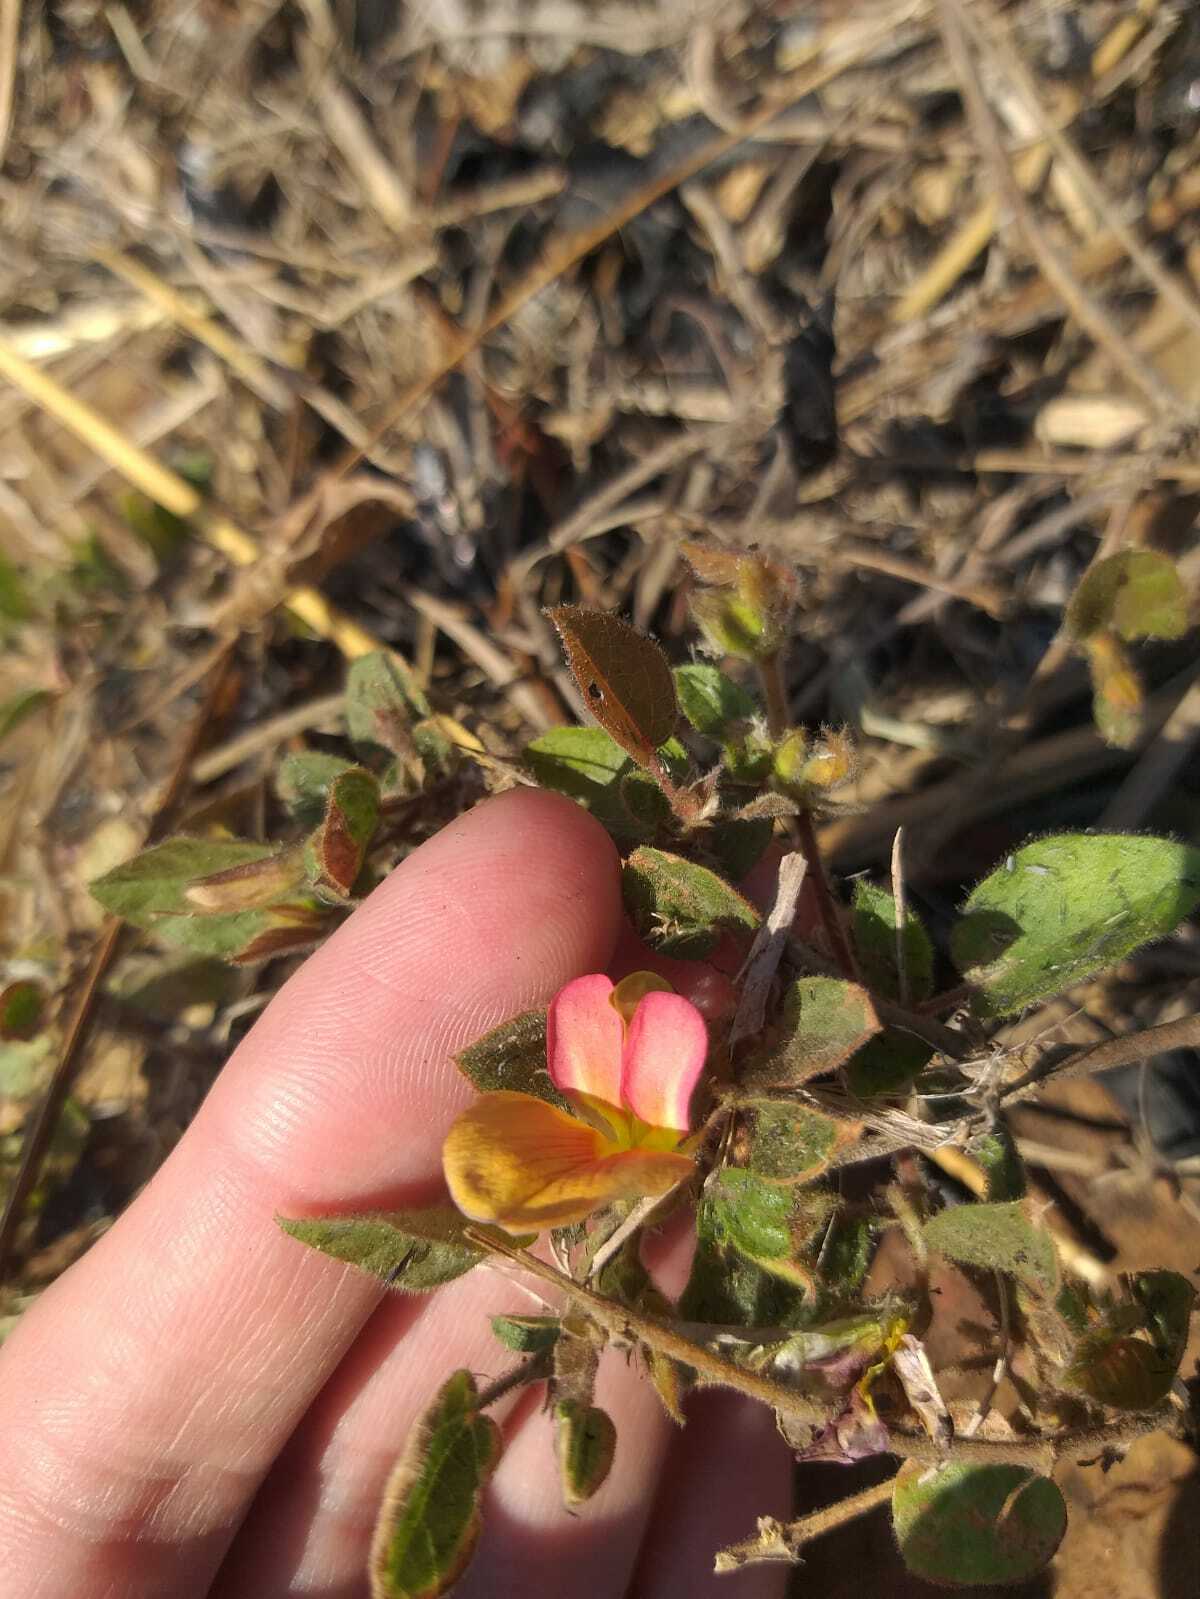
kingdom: Plantae
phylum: Tracheophyta
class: Magnoliopsida
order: Fabales
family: Fabaceae
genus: Rhynchosia
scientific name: Rhynchosia monophylla
